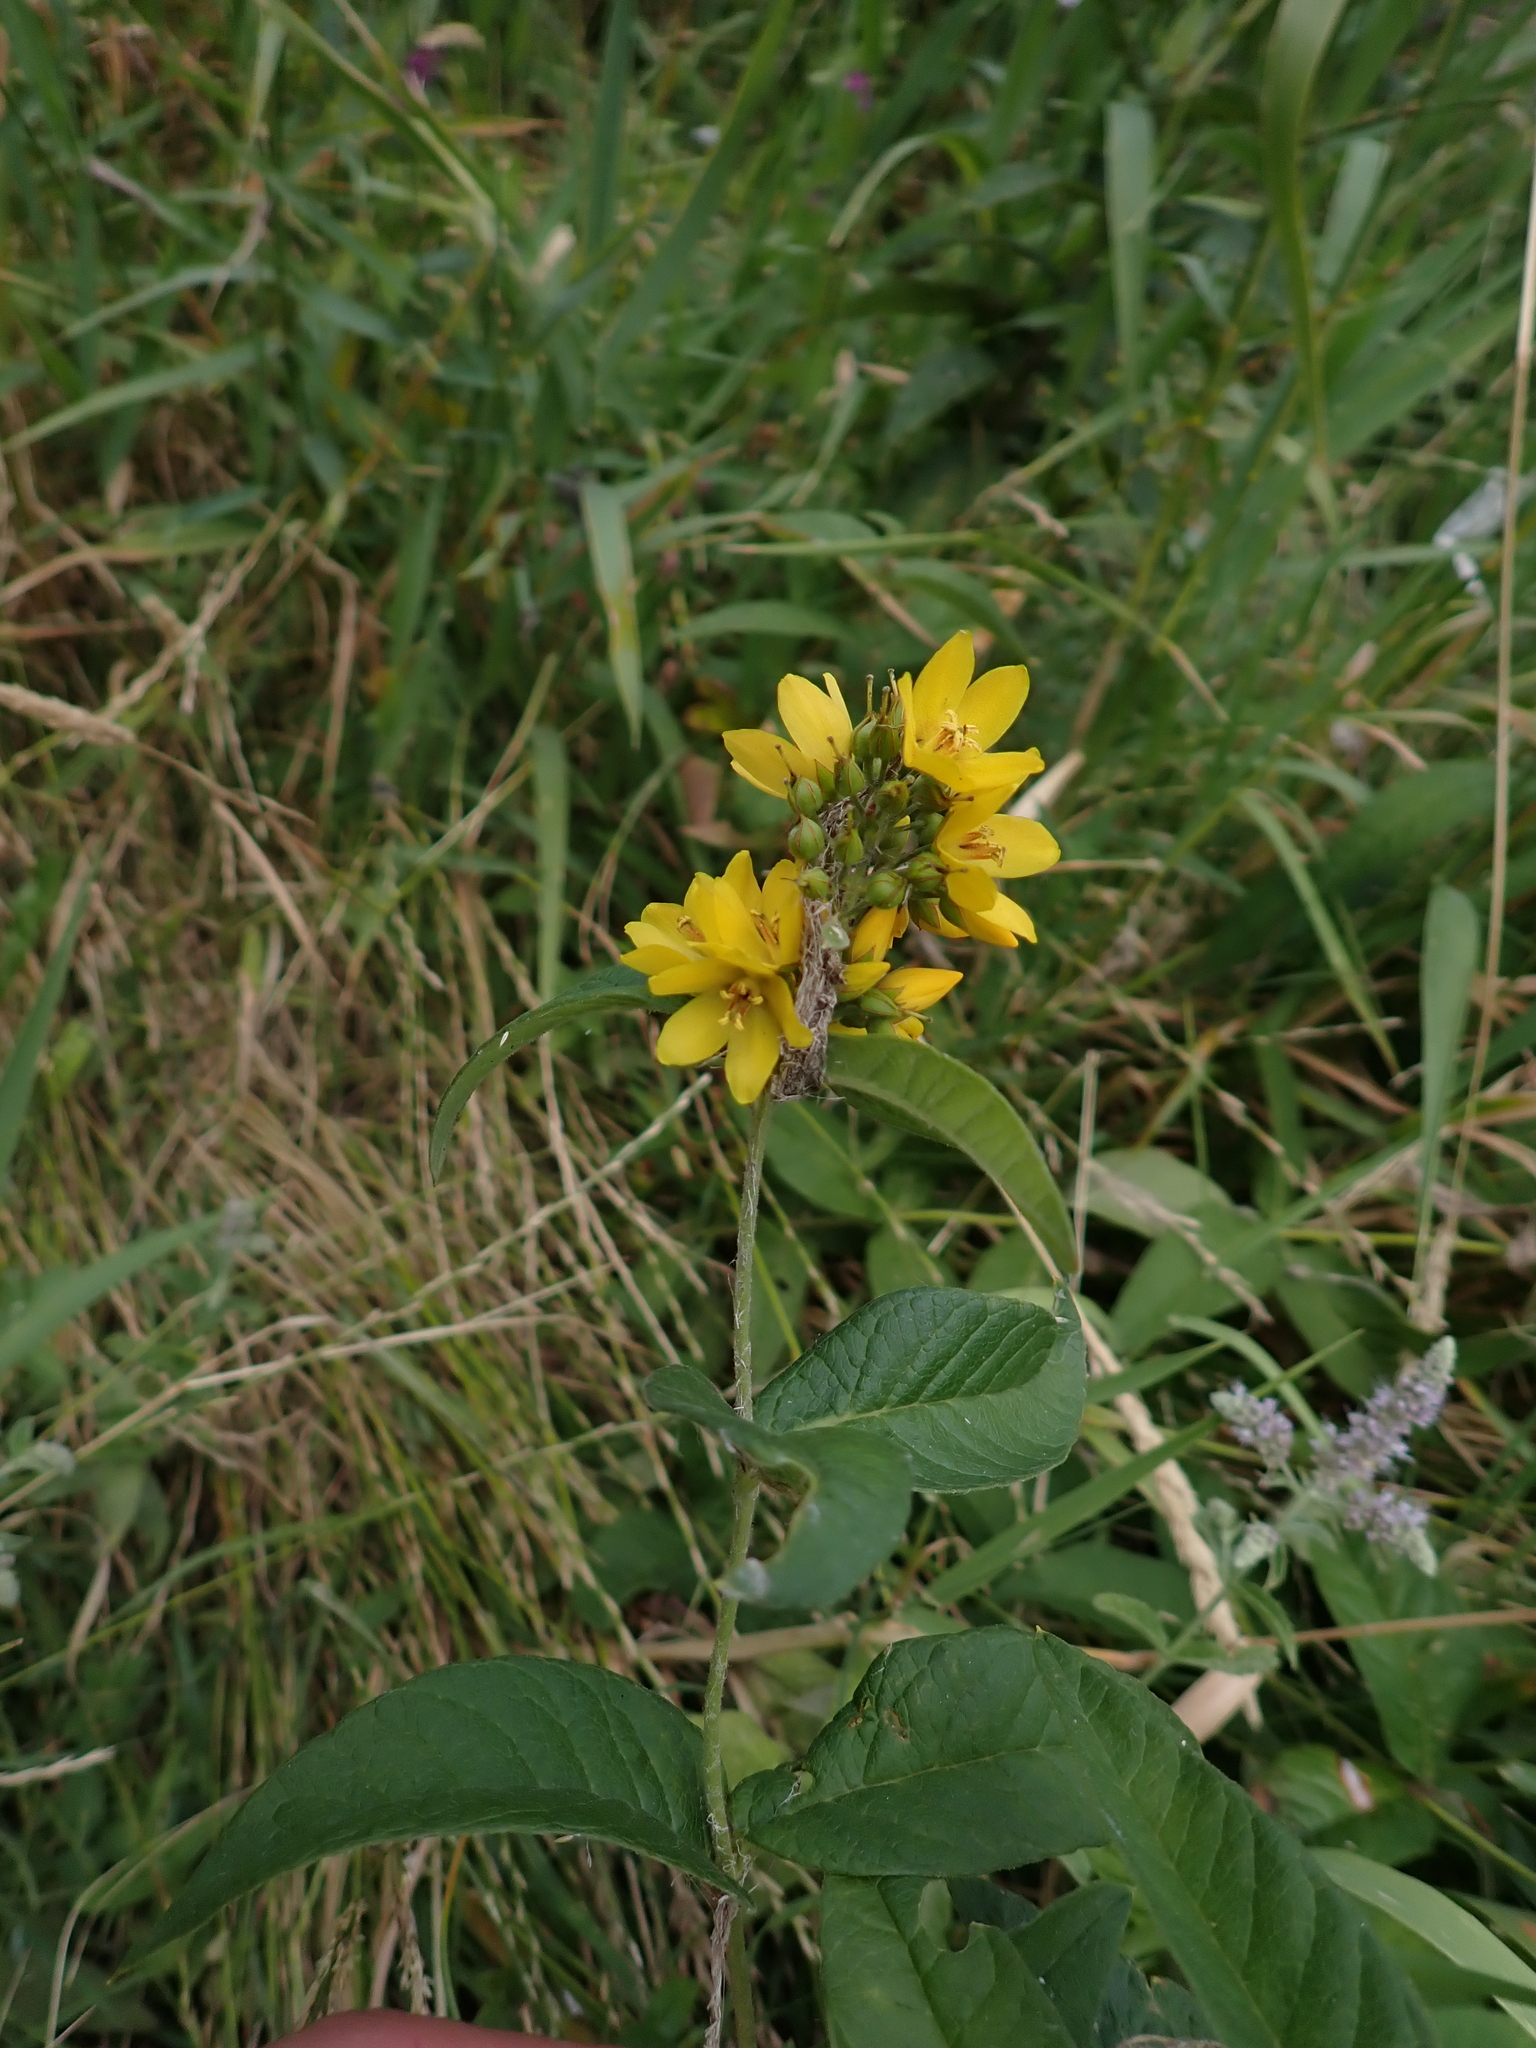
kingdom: Plantae
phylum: Tracheophyta
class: Magnoliopsida
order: Ericales
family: Primulaceae
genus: Lysimachia
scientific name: Lysimachia vulgaris
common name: Yellow loosestrife
